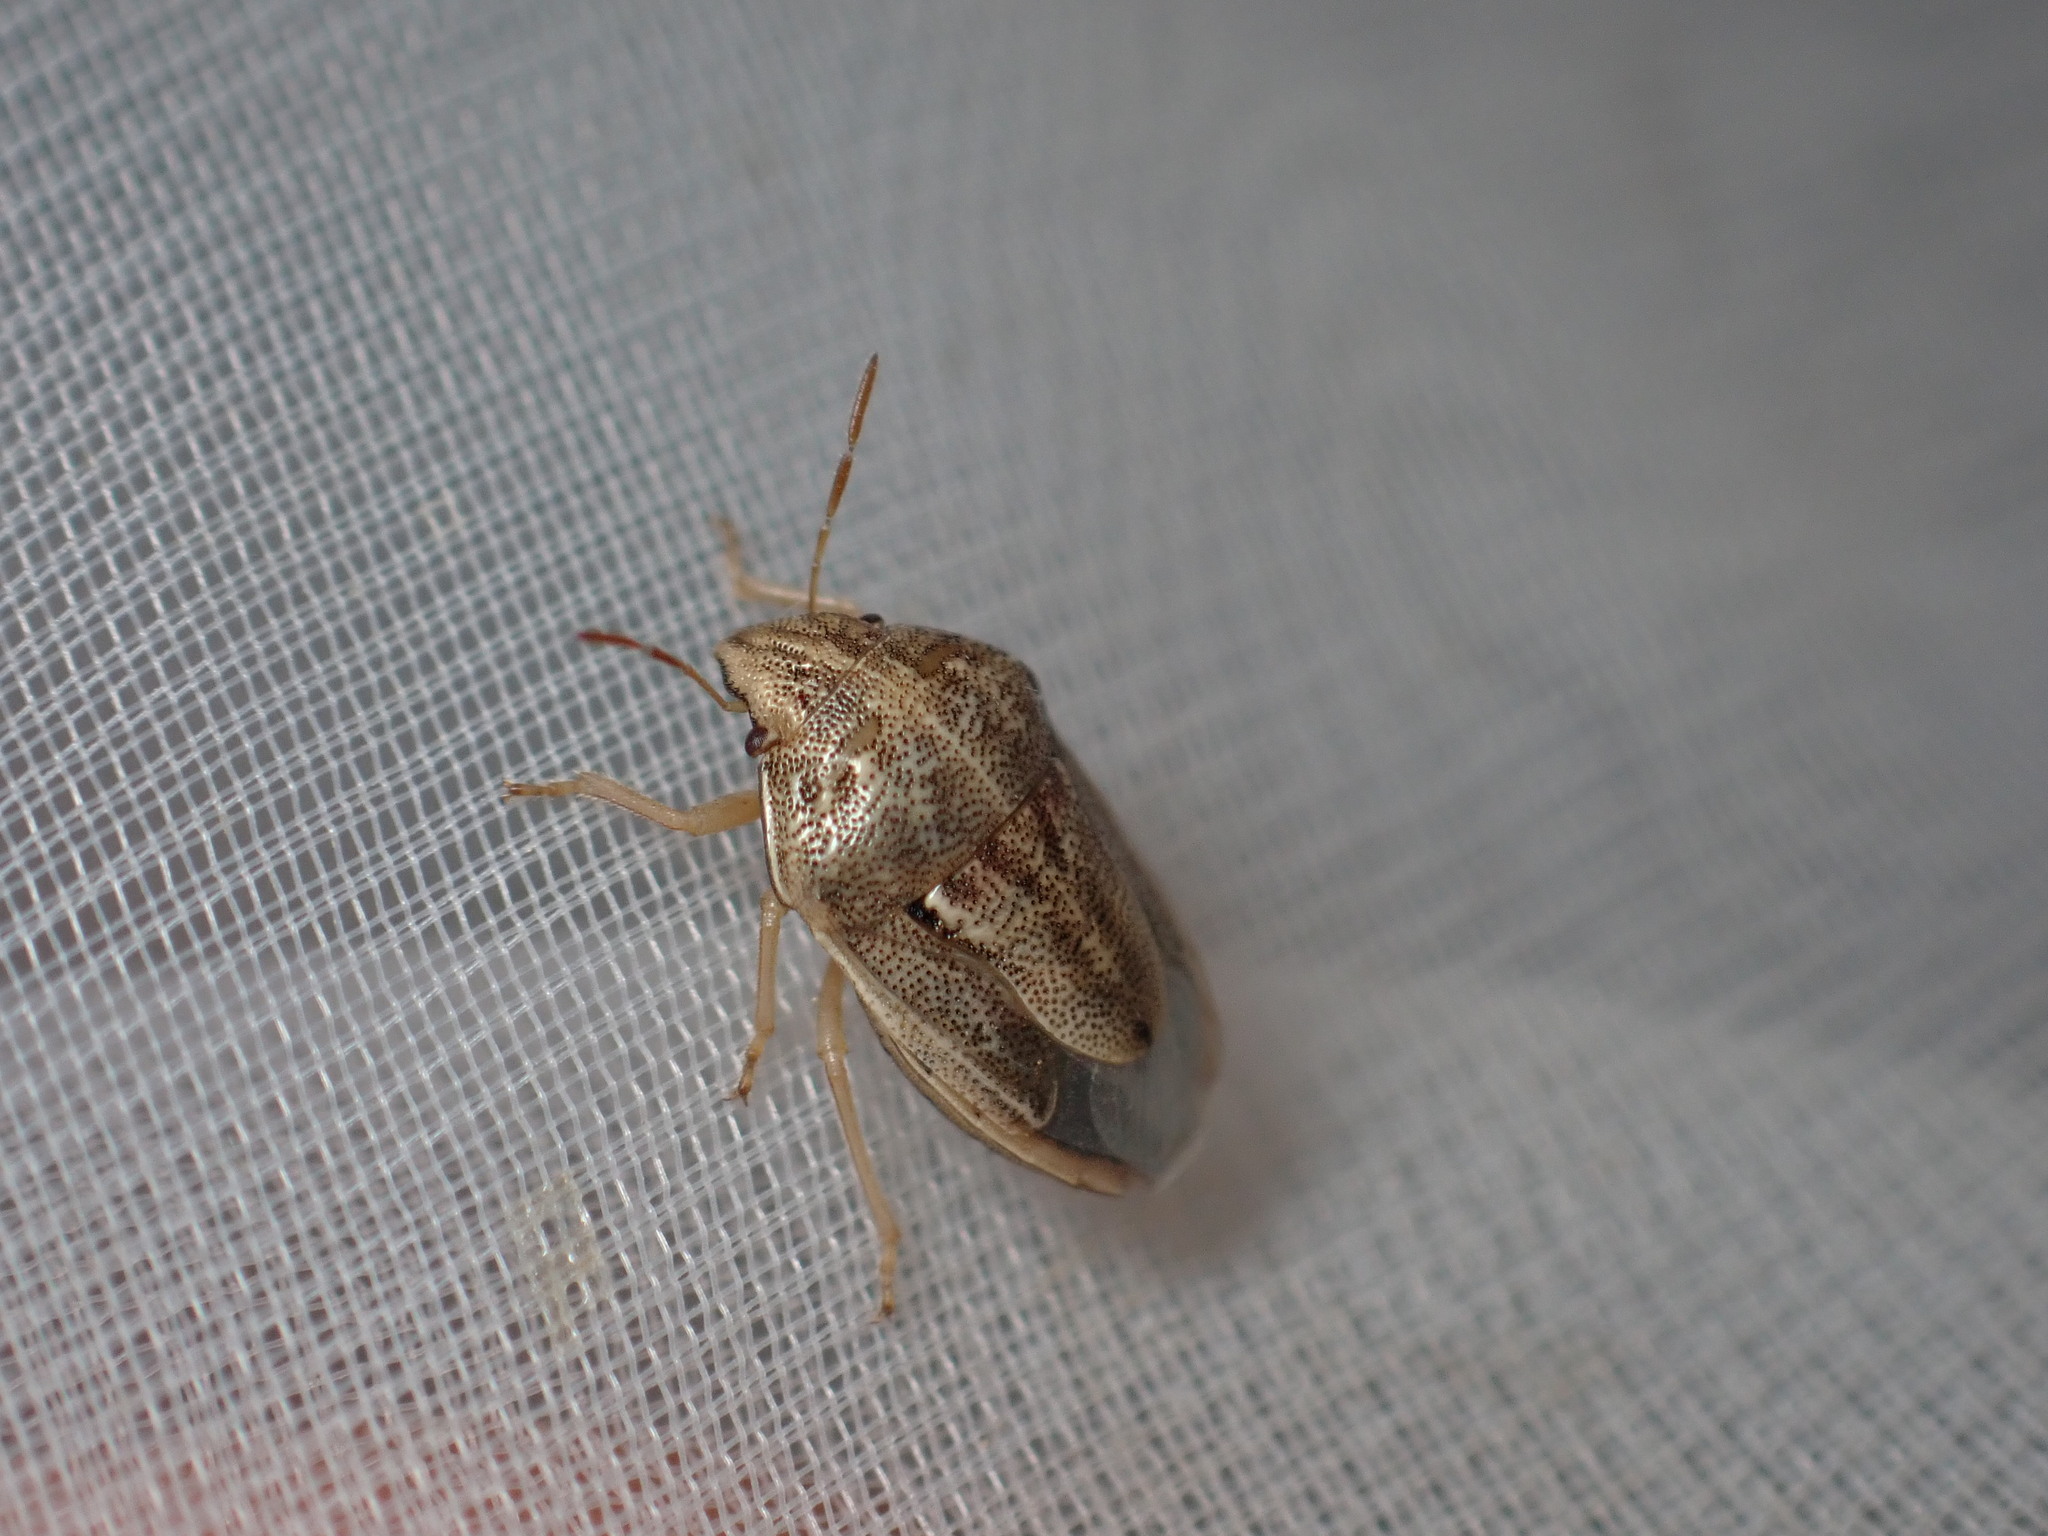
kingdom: Animalia
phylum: Arthropoda
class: Insecta
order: Hemiptera
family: Pentatomidae
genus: Neottiglossa
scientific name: Neottiglossa bifida
